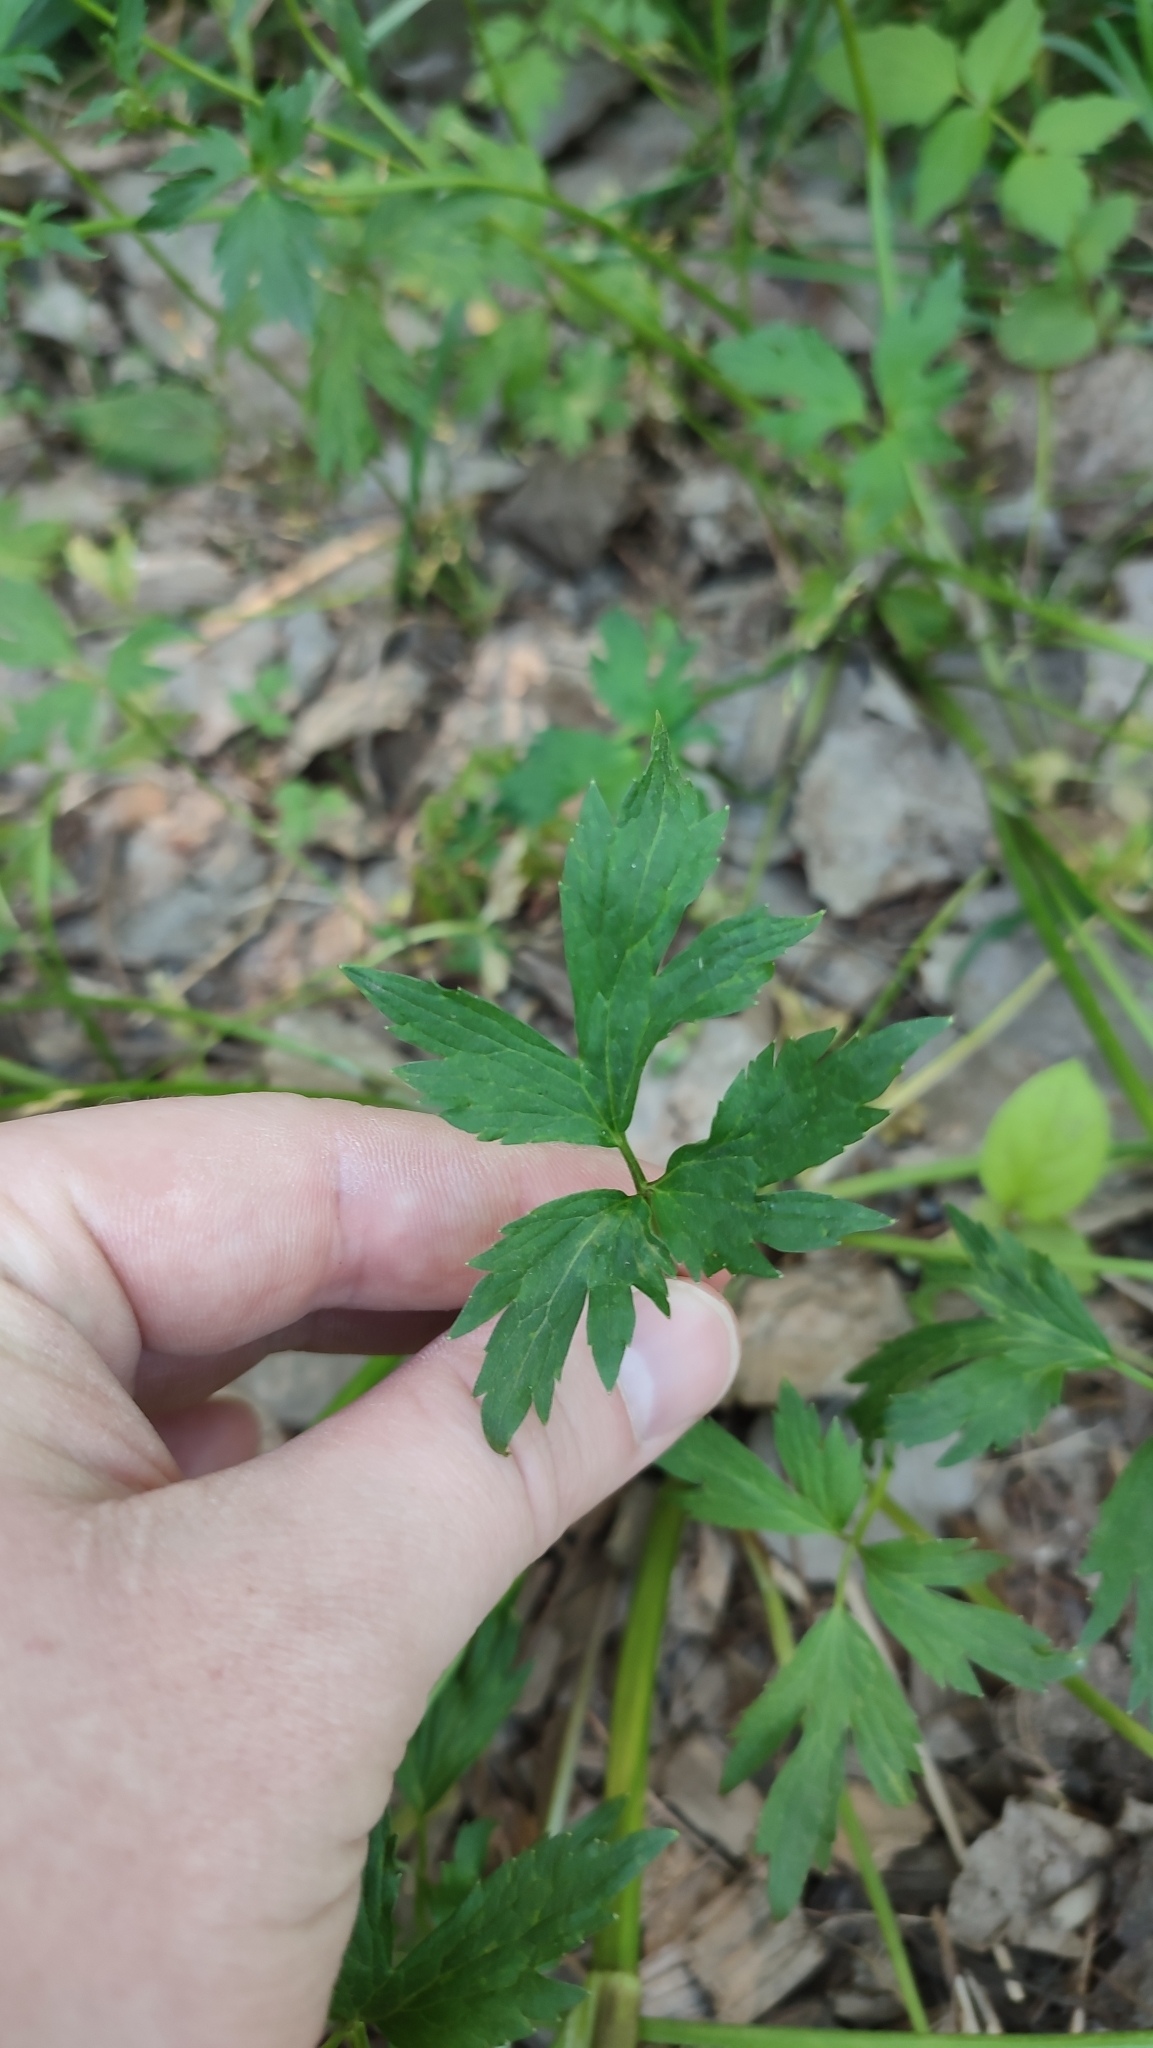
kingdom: Plantae
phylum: Tracheophyta
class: Magnoliopsida
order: Ranunculales
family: Ranunculaceae
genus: Ranunculus
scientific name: Ranunculus repens
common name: Creeping buttercup
